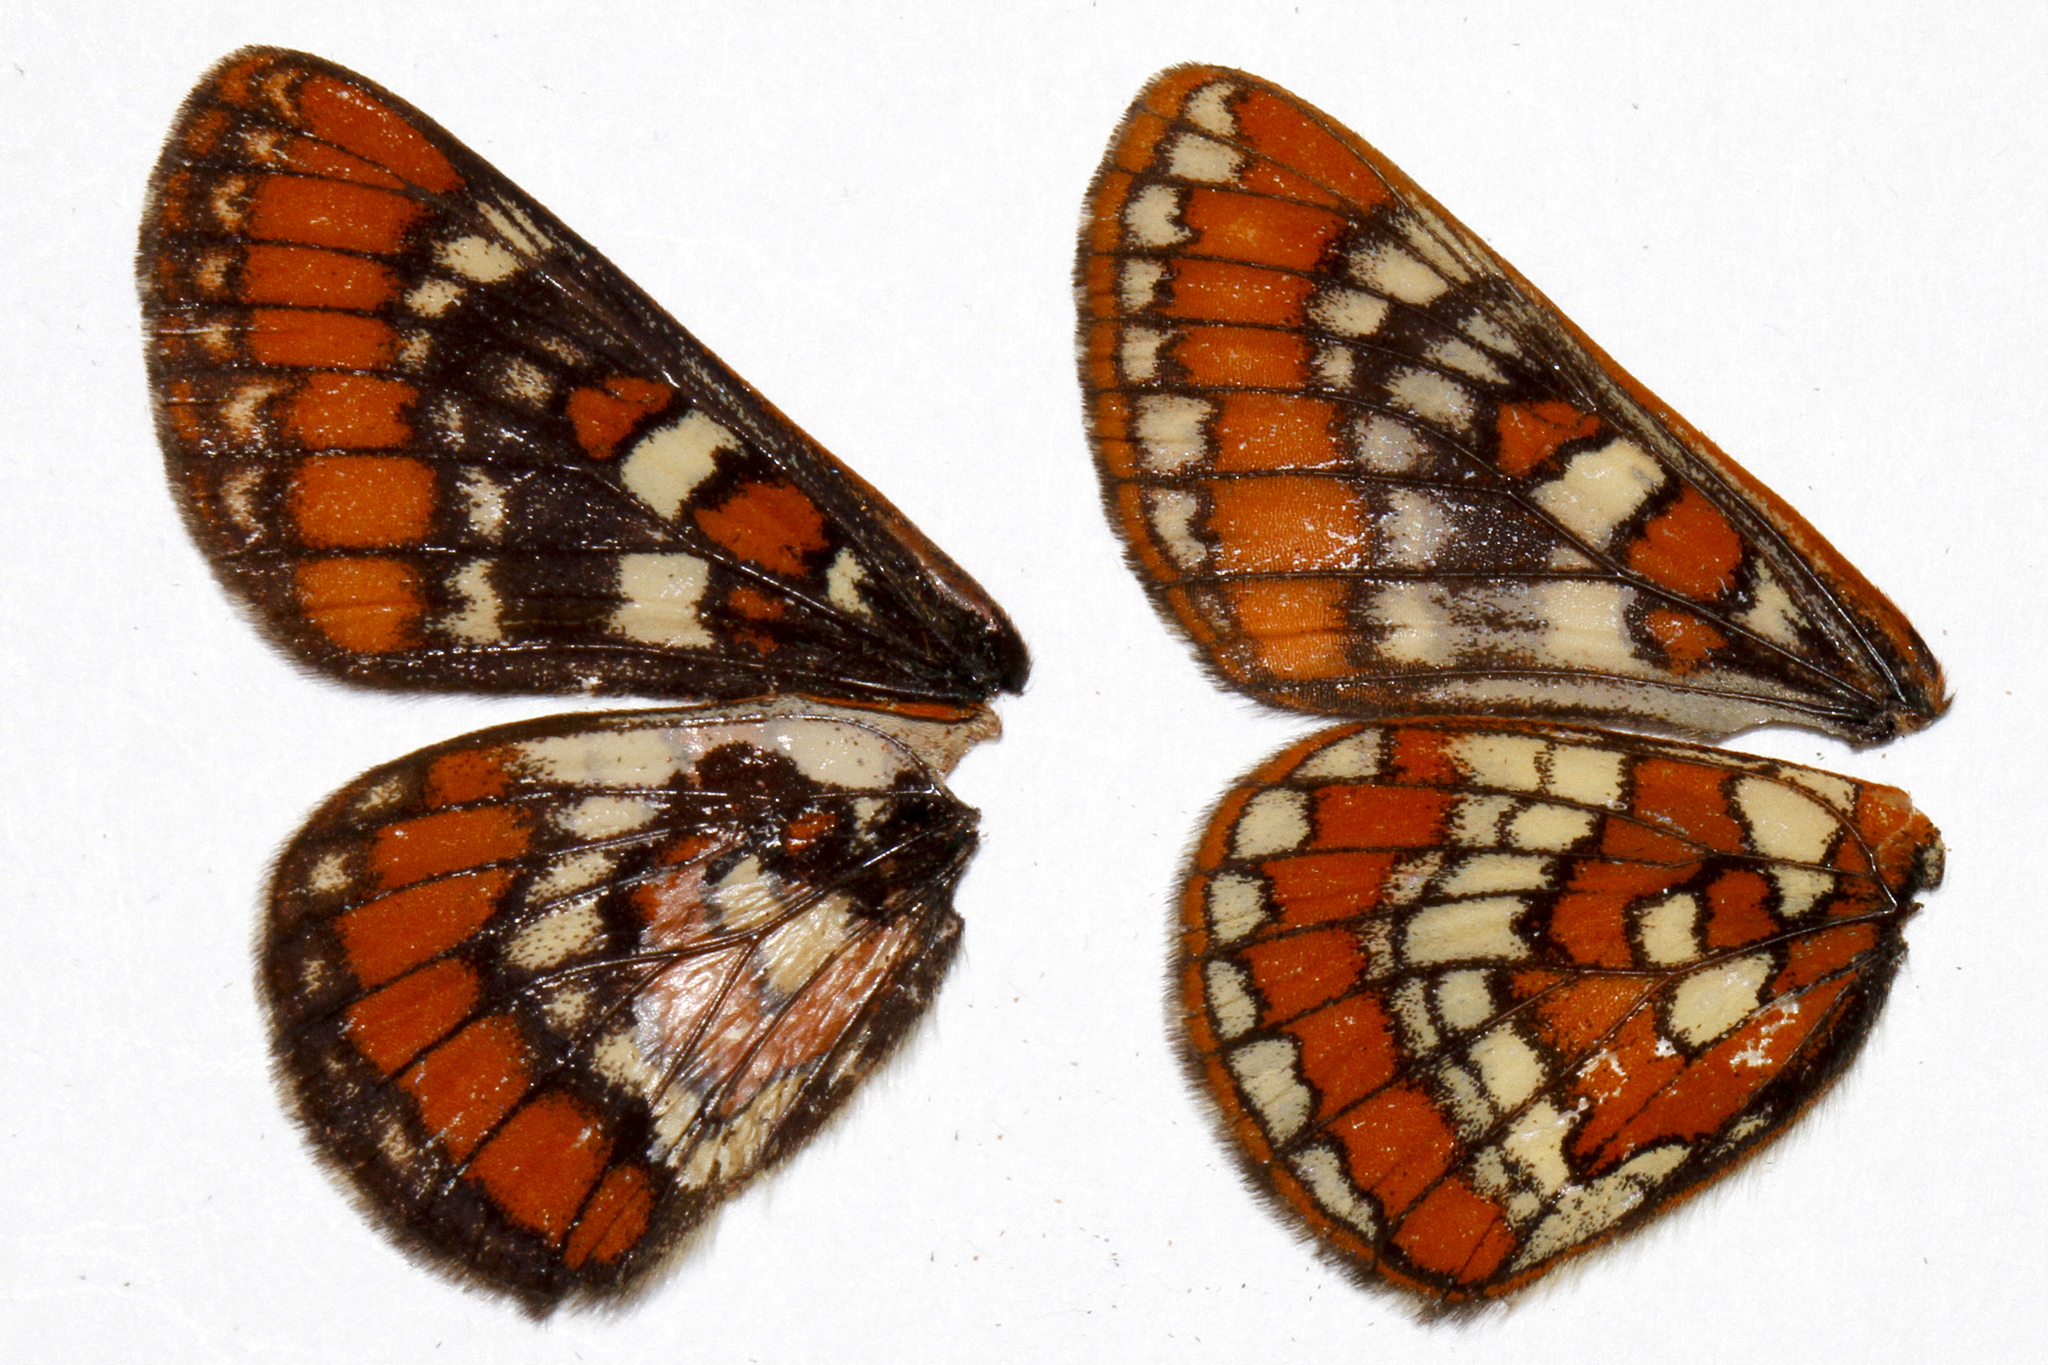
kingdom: Animalia
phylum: Arthropoda
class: Insecta
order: Lepidoptera
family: Nymphalidae
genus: Hypodryas
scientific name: Hypodryas gillettii
